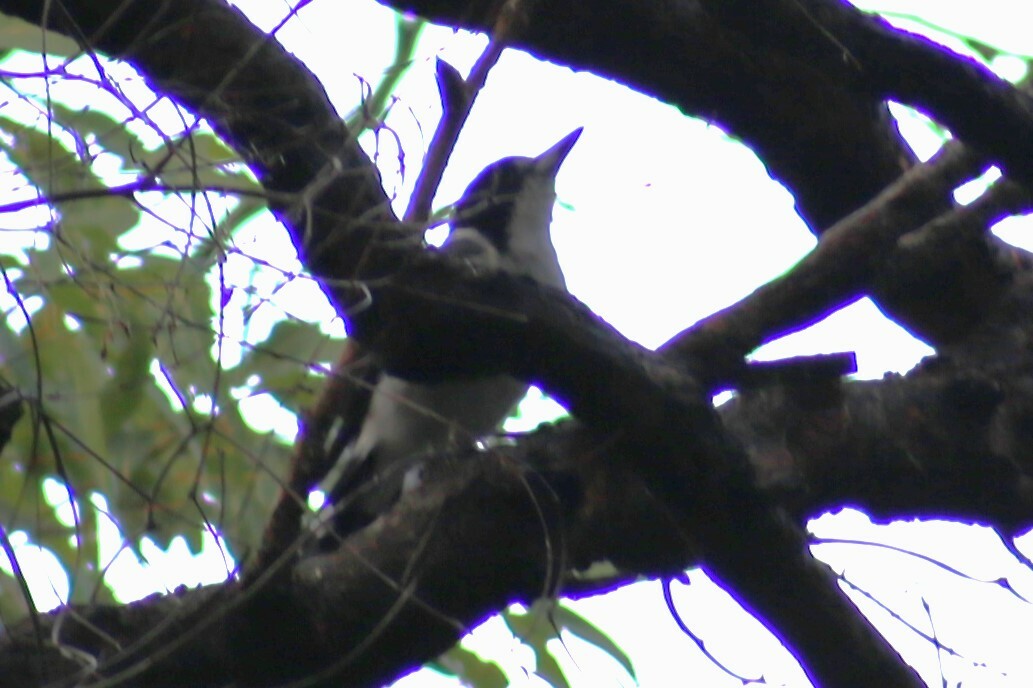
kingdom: Animalia
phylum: Chordata
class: Aves
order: Passeriformes
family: Cracticidae
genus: Cracticus
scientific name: Cracticus torquatus
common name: Grey butcherbird
